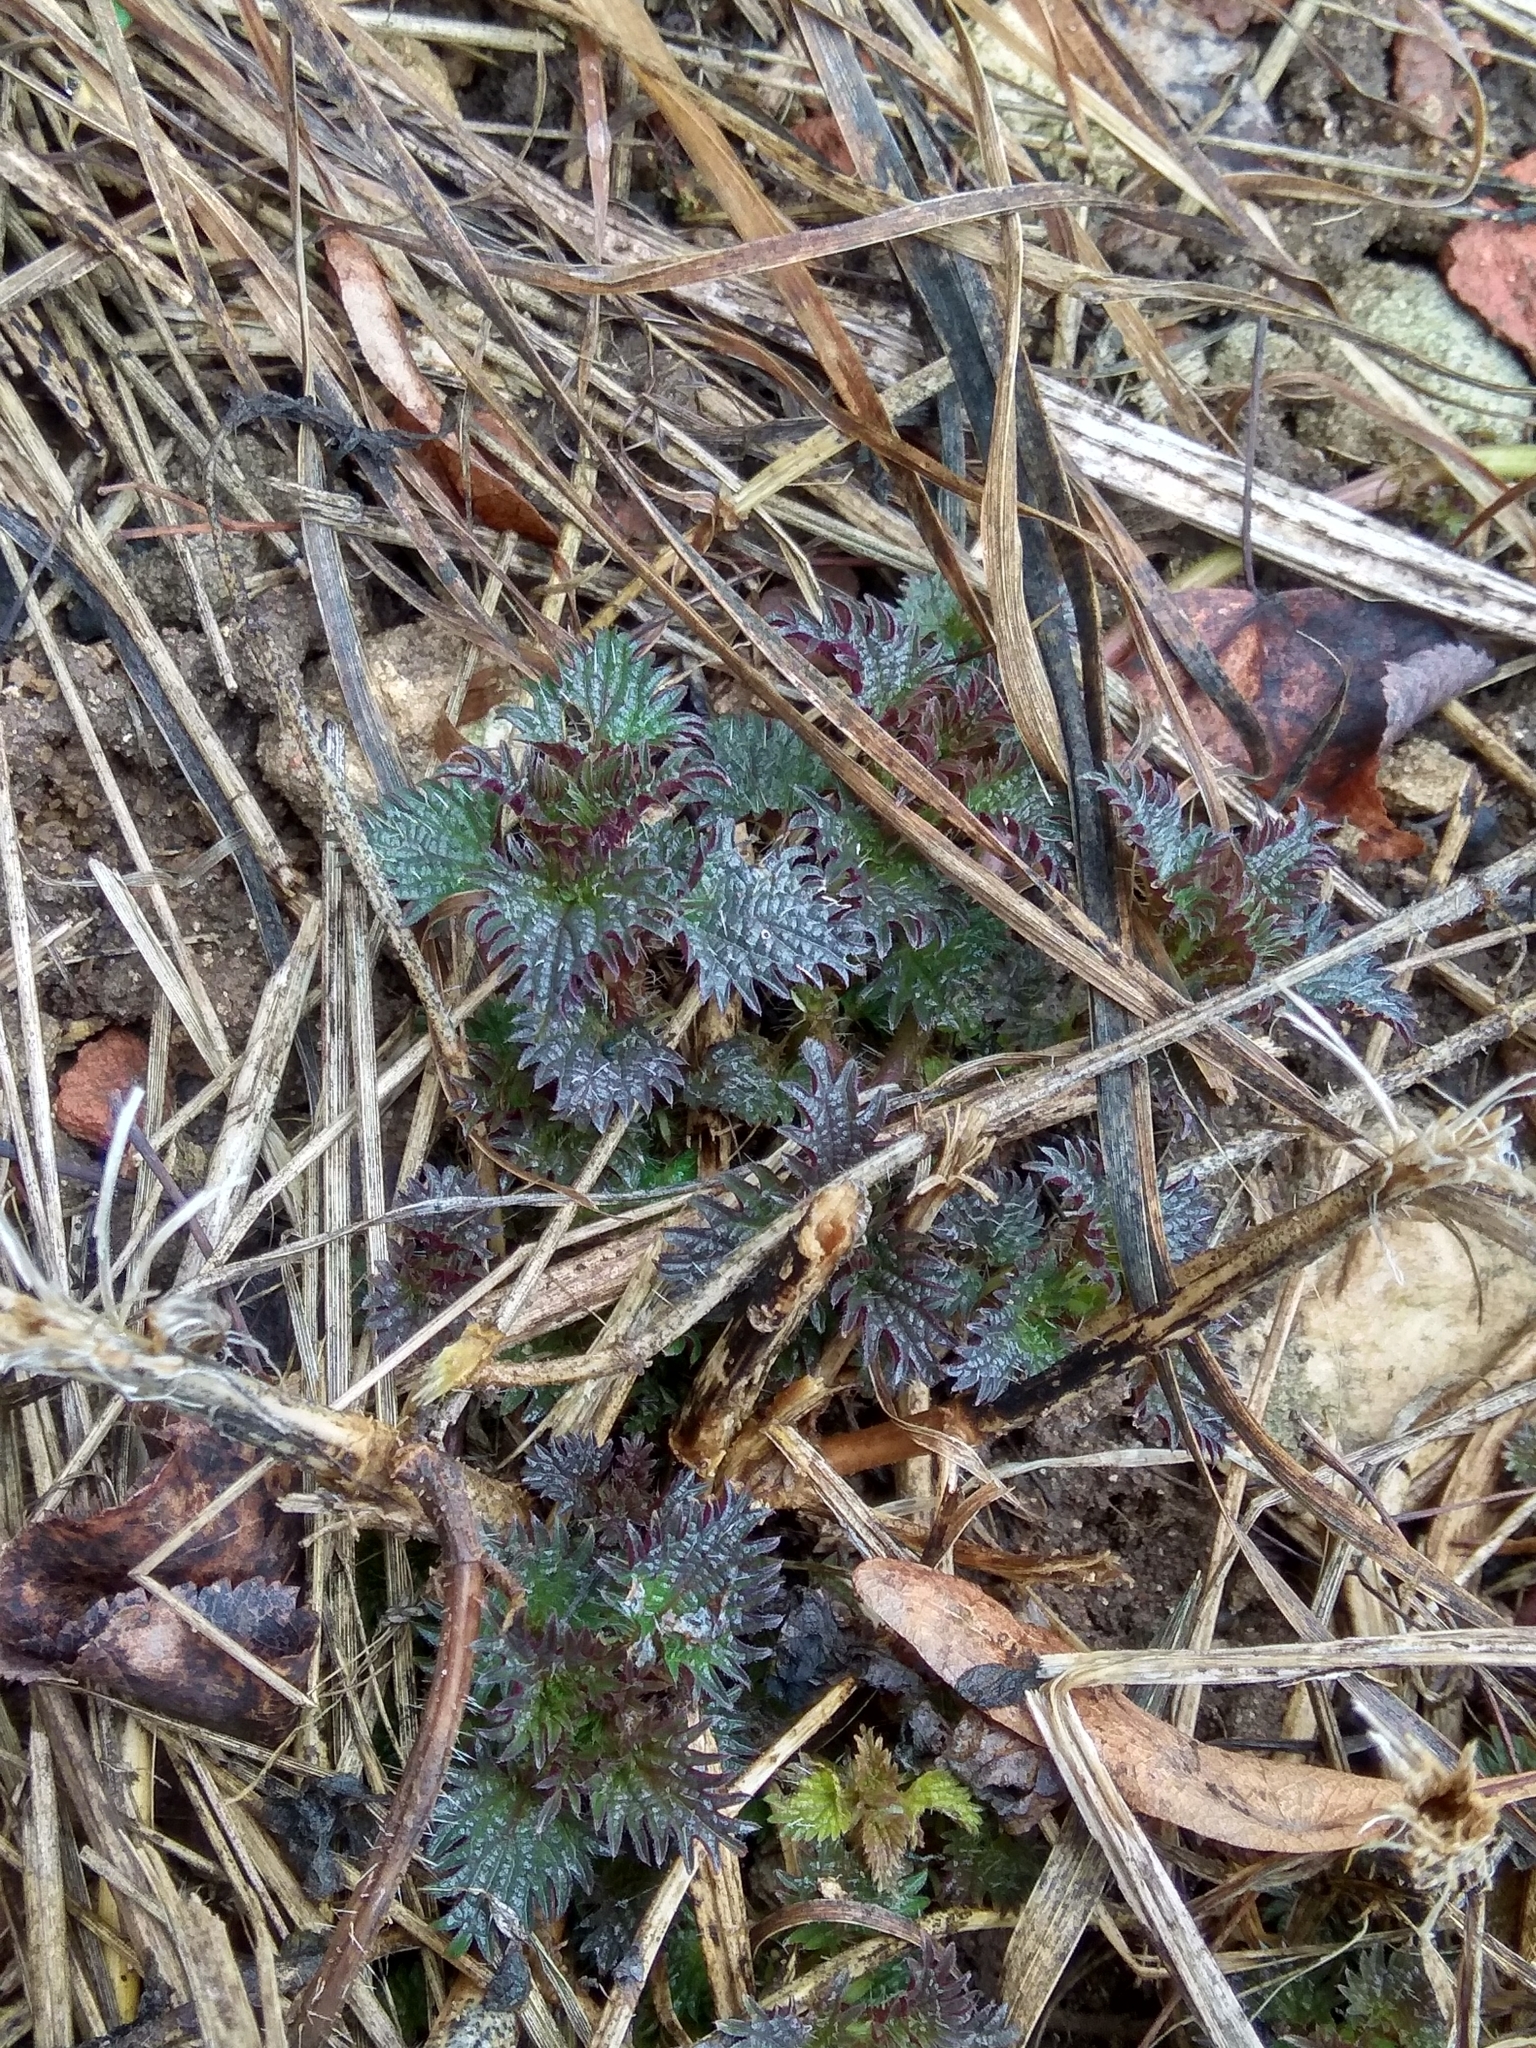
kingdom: Plantae
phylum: Tracheophyta
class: Magnoliopsida
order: Rosales
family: Urticaceae
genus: Urtica
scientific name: Urtica dioica
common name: Common nettle
